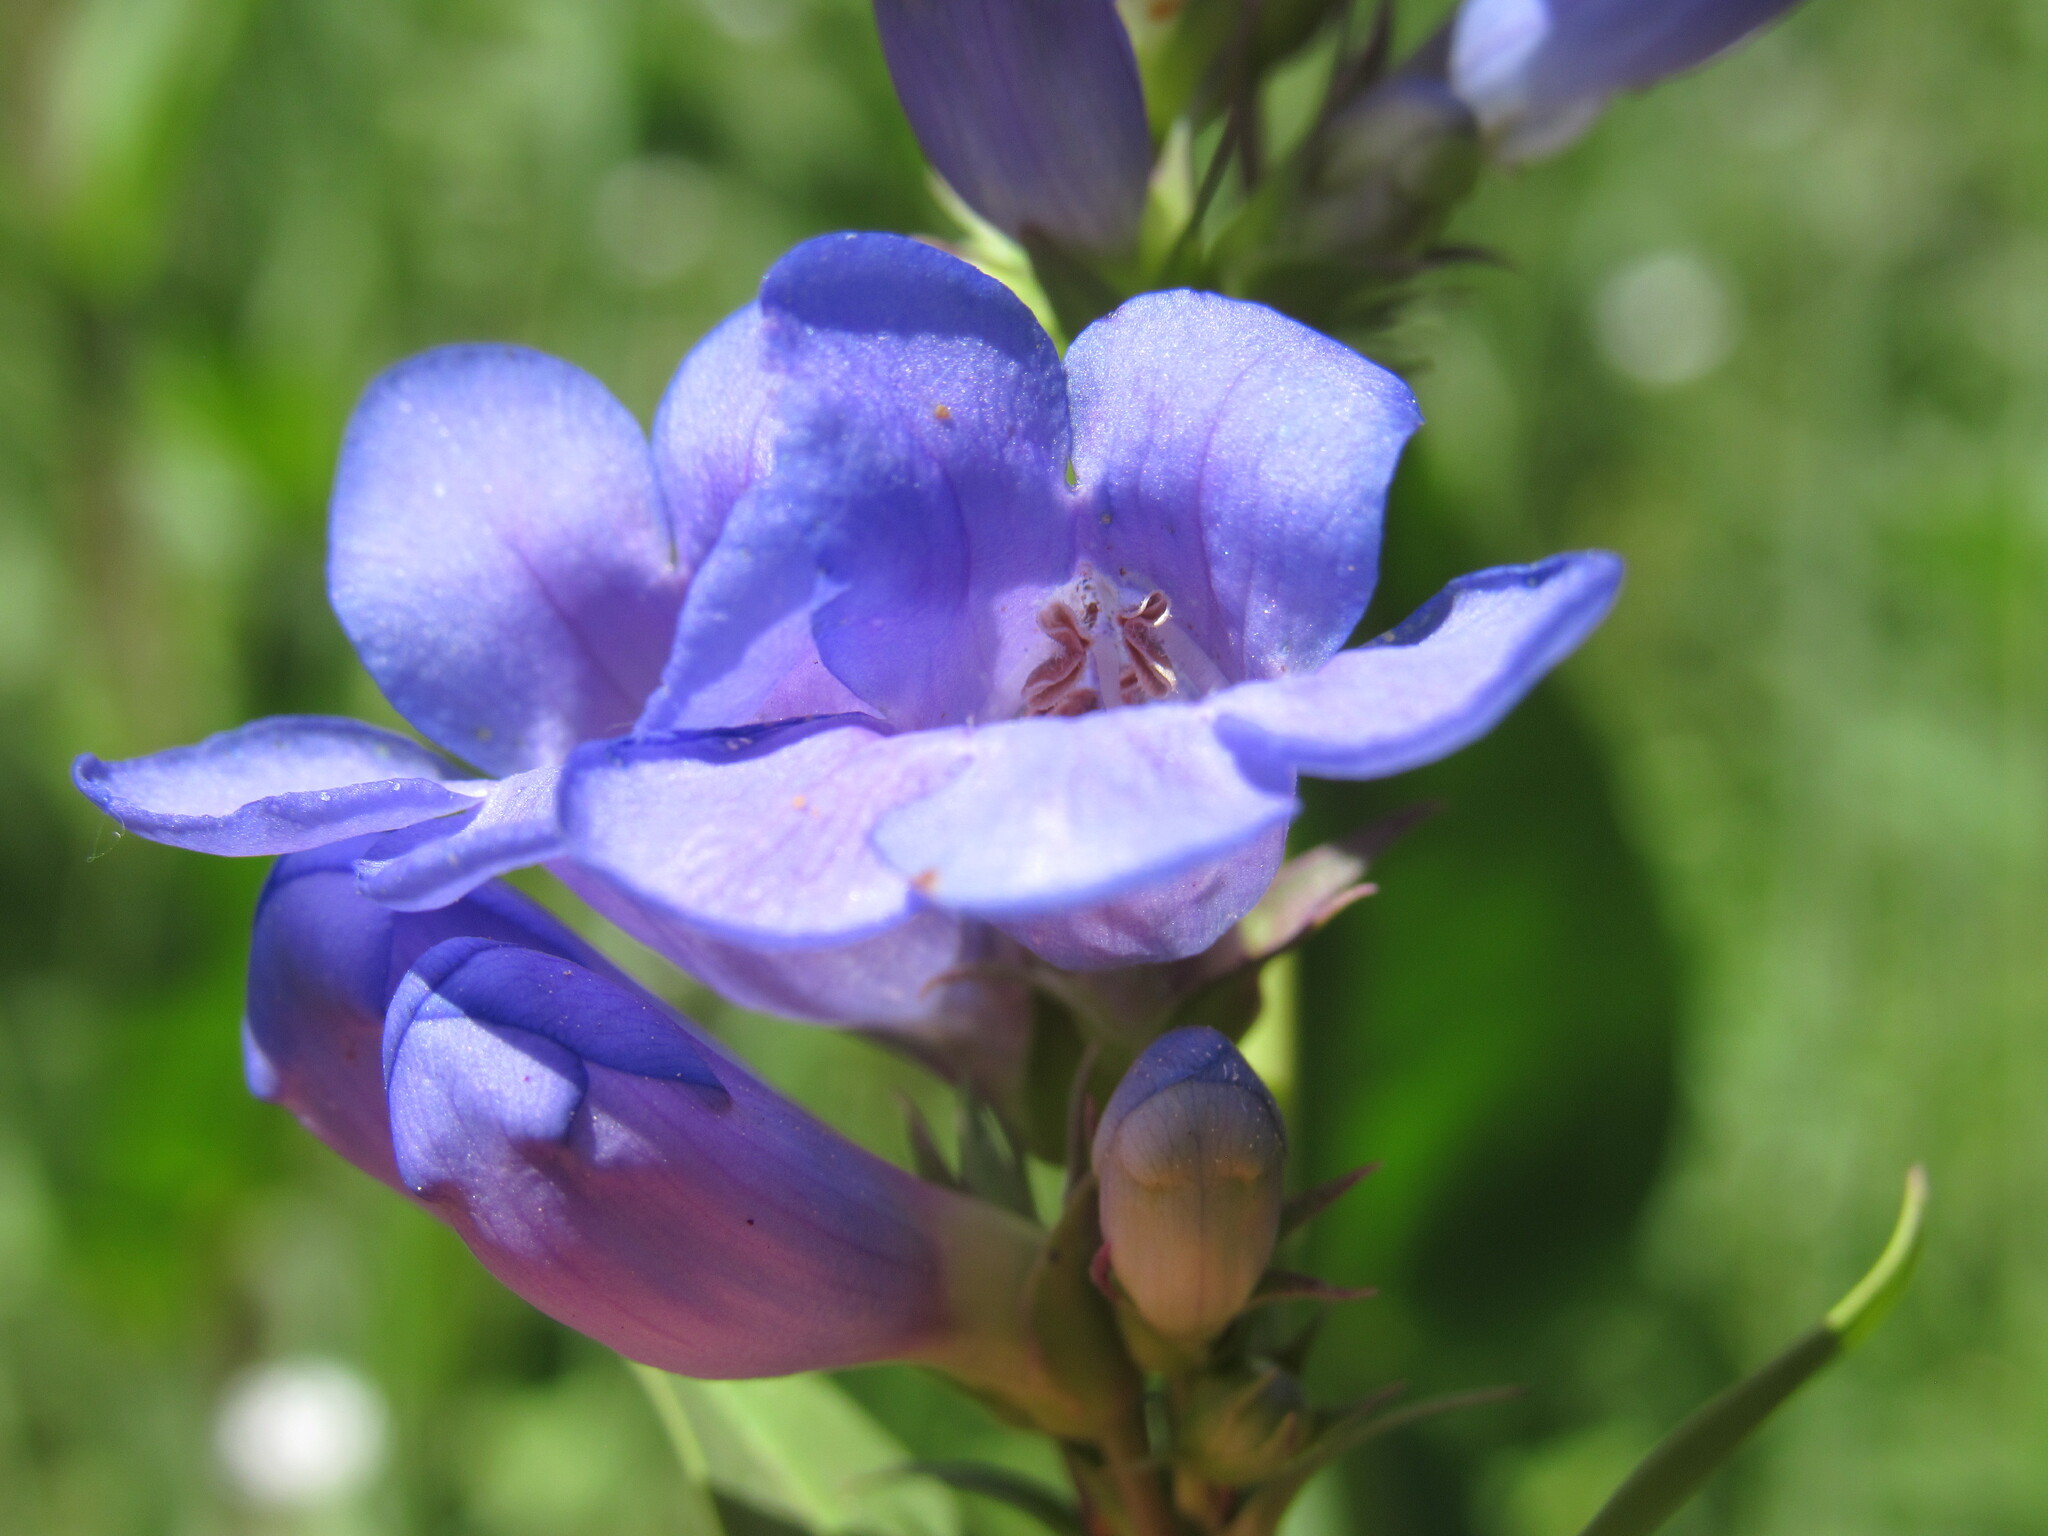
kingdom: Plantae
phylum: Tracheophyta
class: Magnoliopsida
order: Lamiales
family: Plantaginaceae
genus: Penstemon
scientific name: Penstemon cyananthus
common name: Wasatch penstemon
